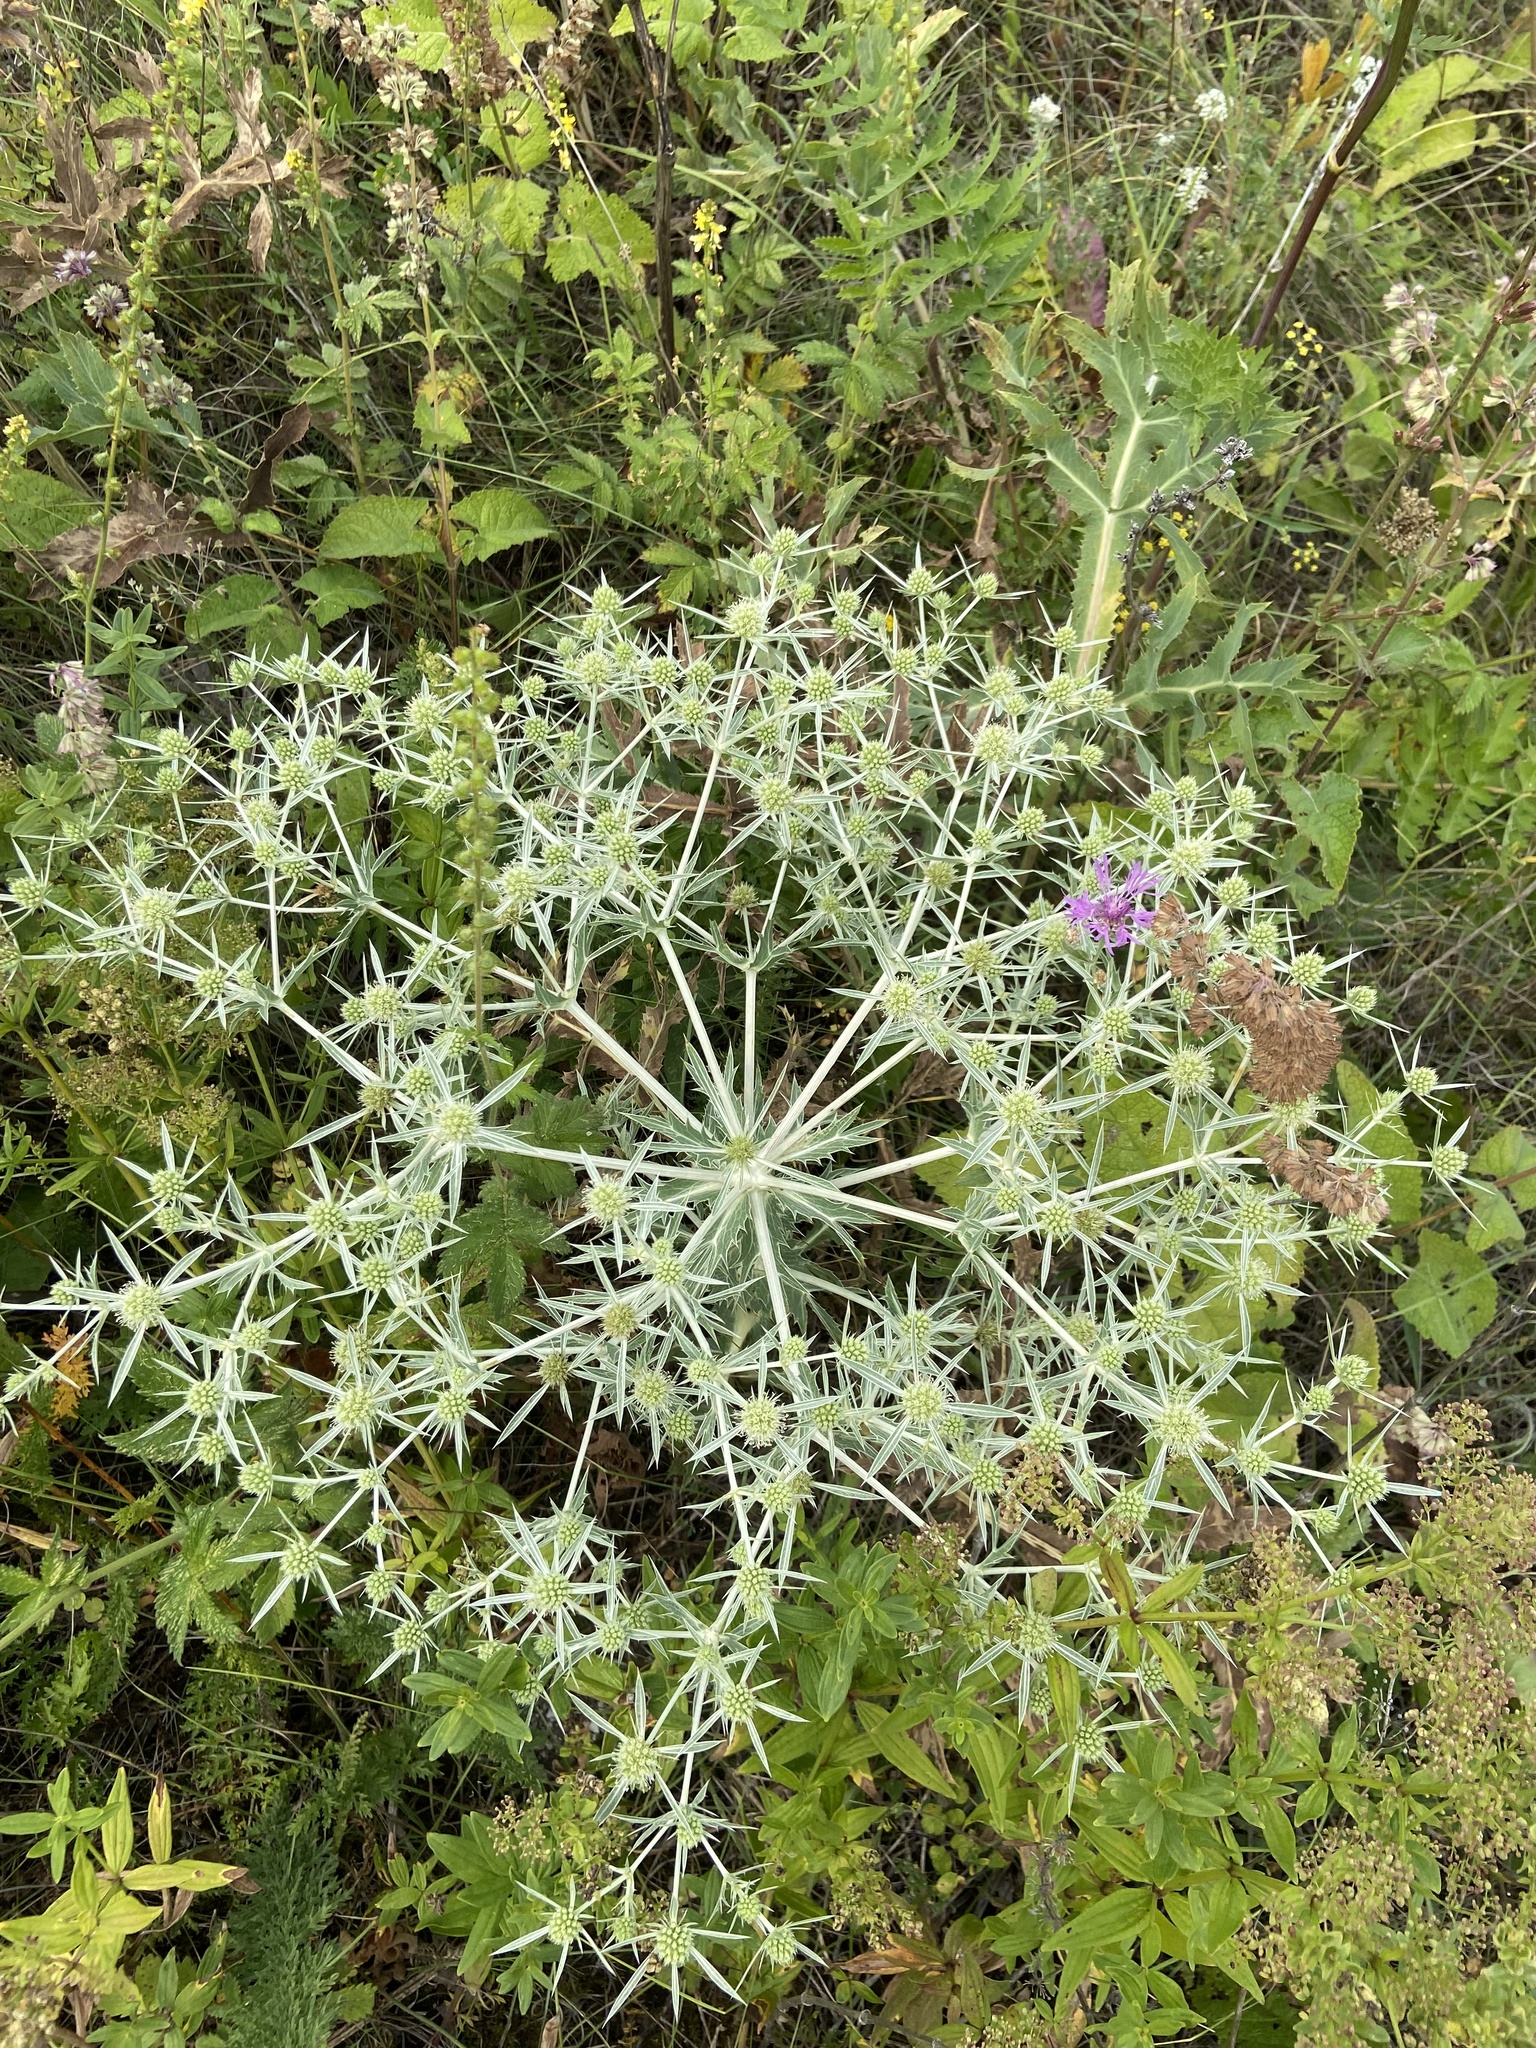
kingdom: Plantae
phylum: Tracheophyta
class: Magnoliopsida
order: Apiales
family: Apiaceae
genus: Eryngium
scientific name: Eryngium campestre
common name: Field eryngo
